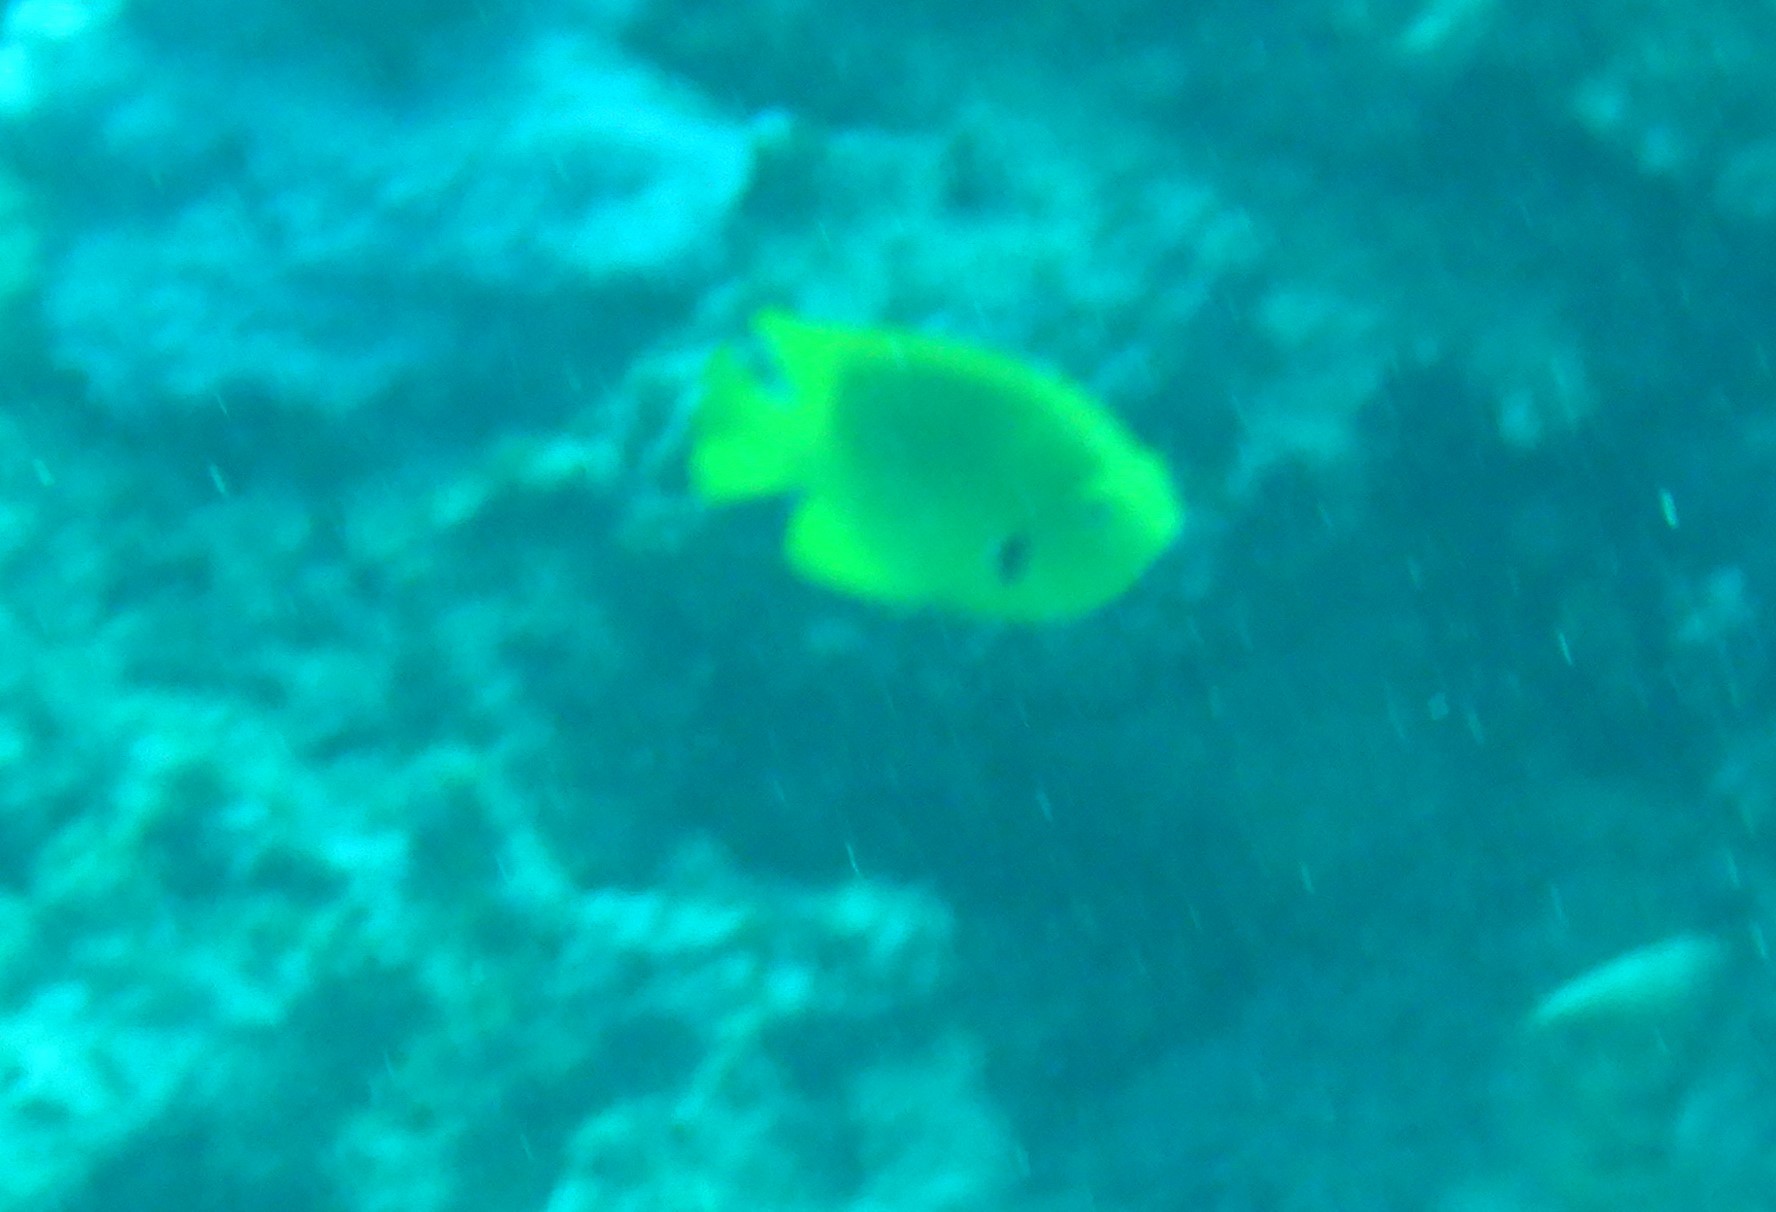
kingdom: Animalia
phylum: Chordata
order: Perciformes
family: Pomacentridae
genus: Pomacentrus
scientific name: Pomacentrus sulfureus
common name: Sulfur damsel
